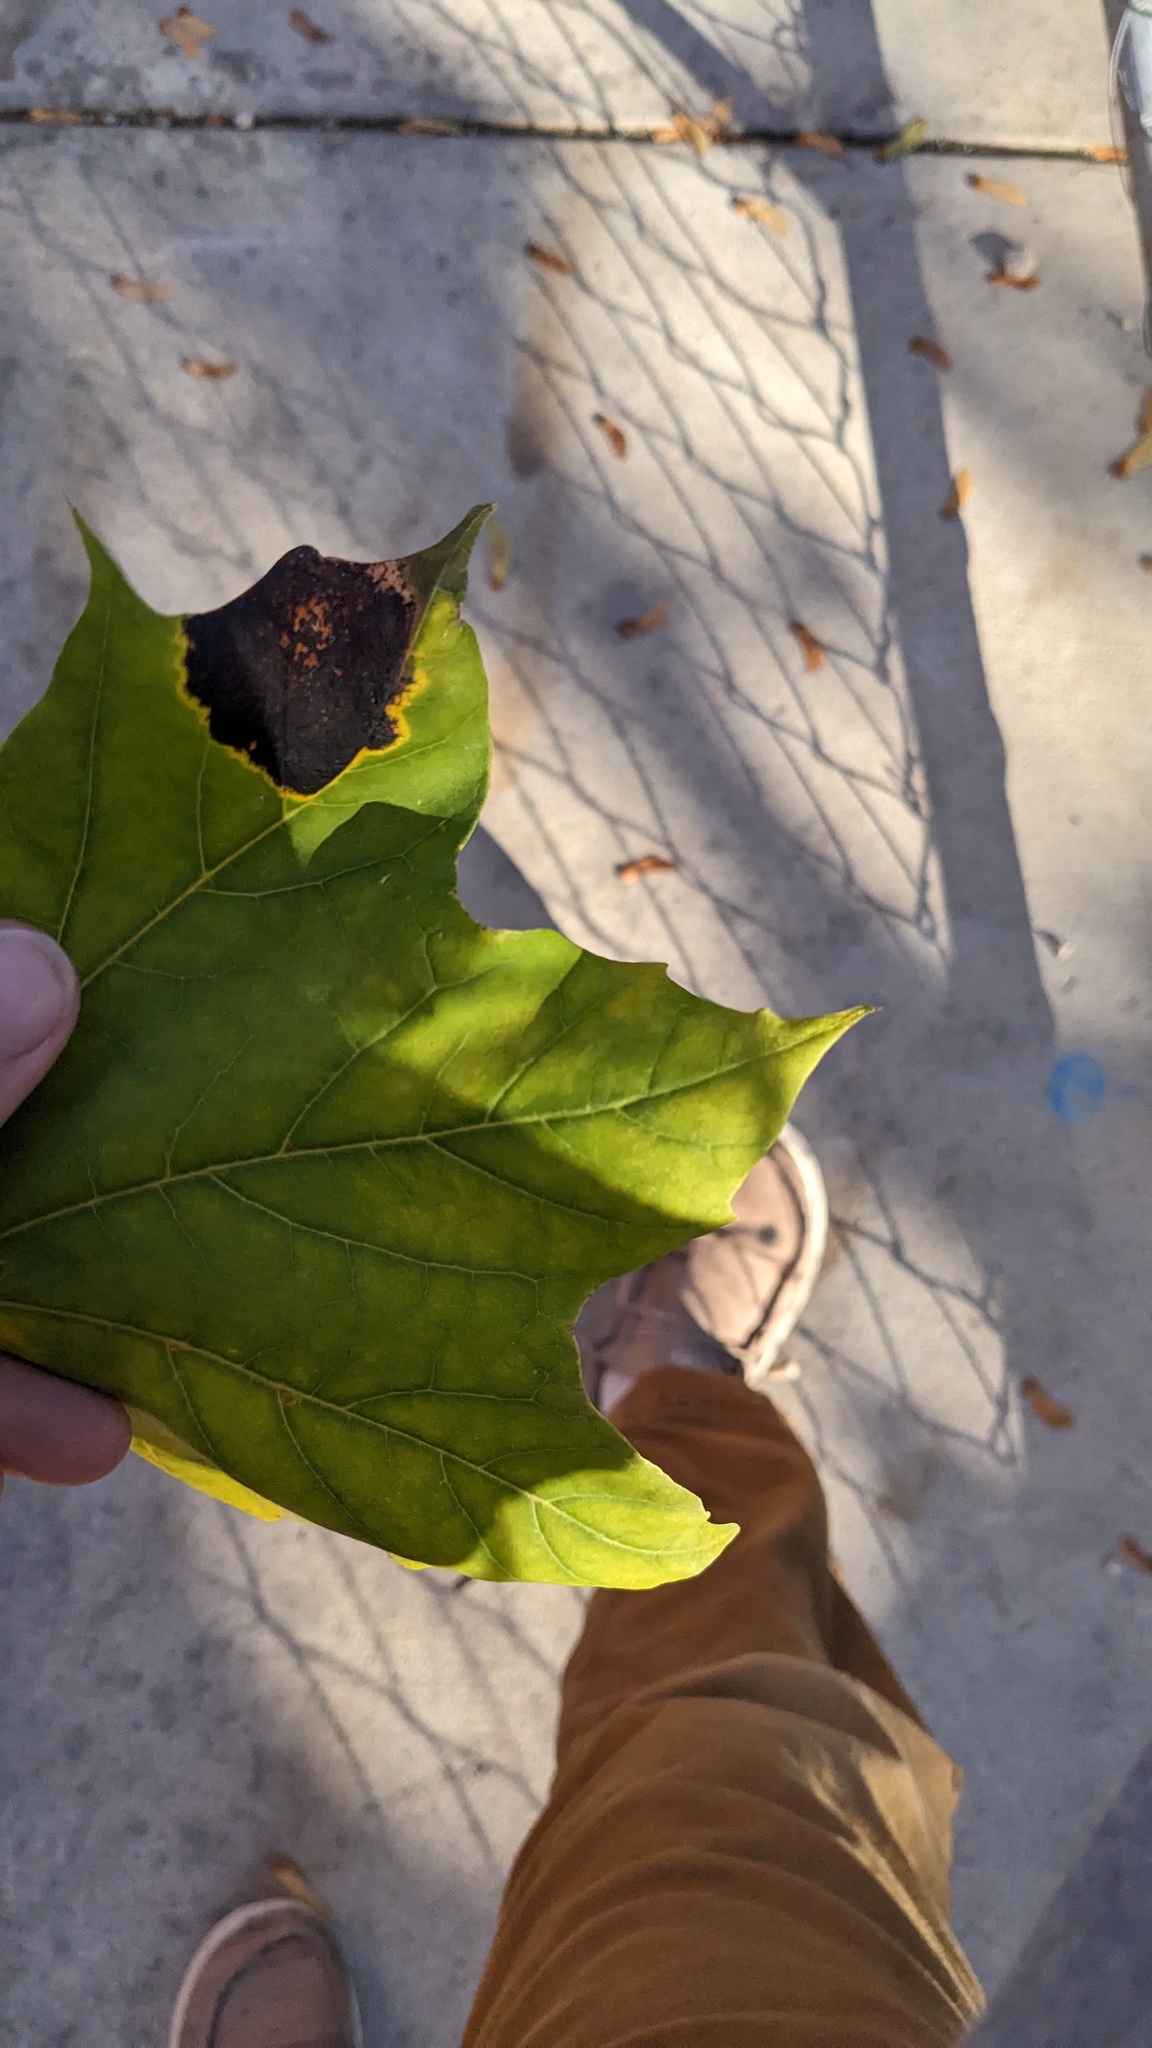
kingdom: Fungi
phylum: Ascomycota
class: Leotiomycetes
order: Rhytismatales
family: Rhytismataceae
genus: Rhytisma
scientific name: Rhytisma acerinum
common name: European tar spot
